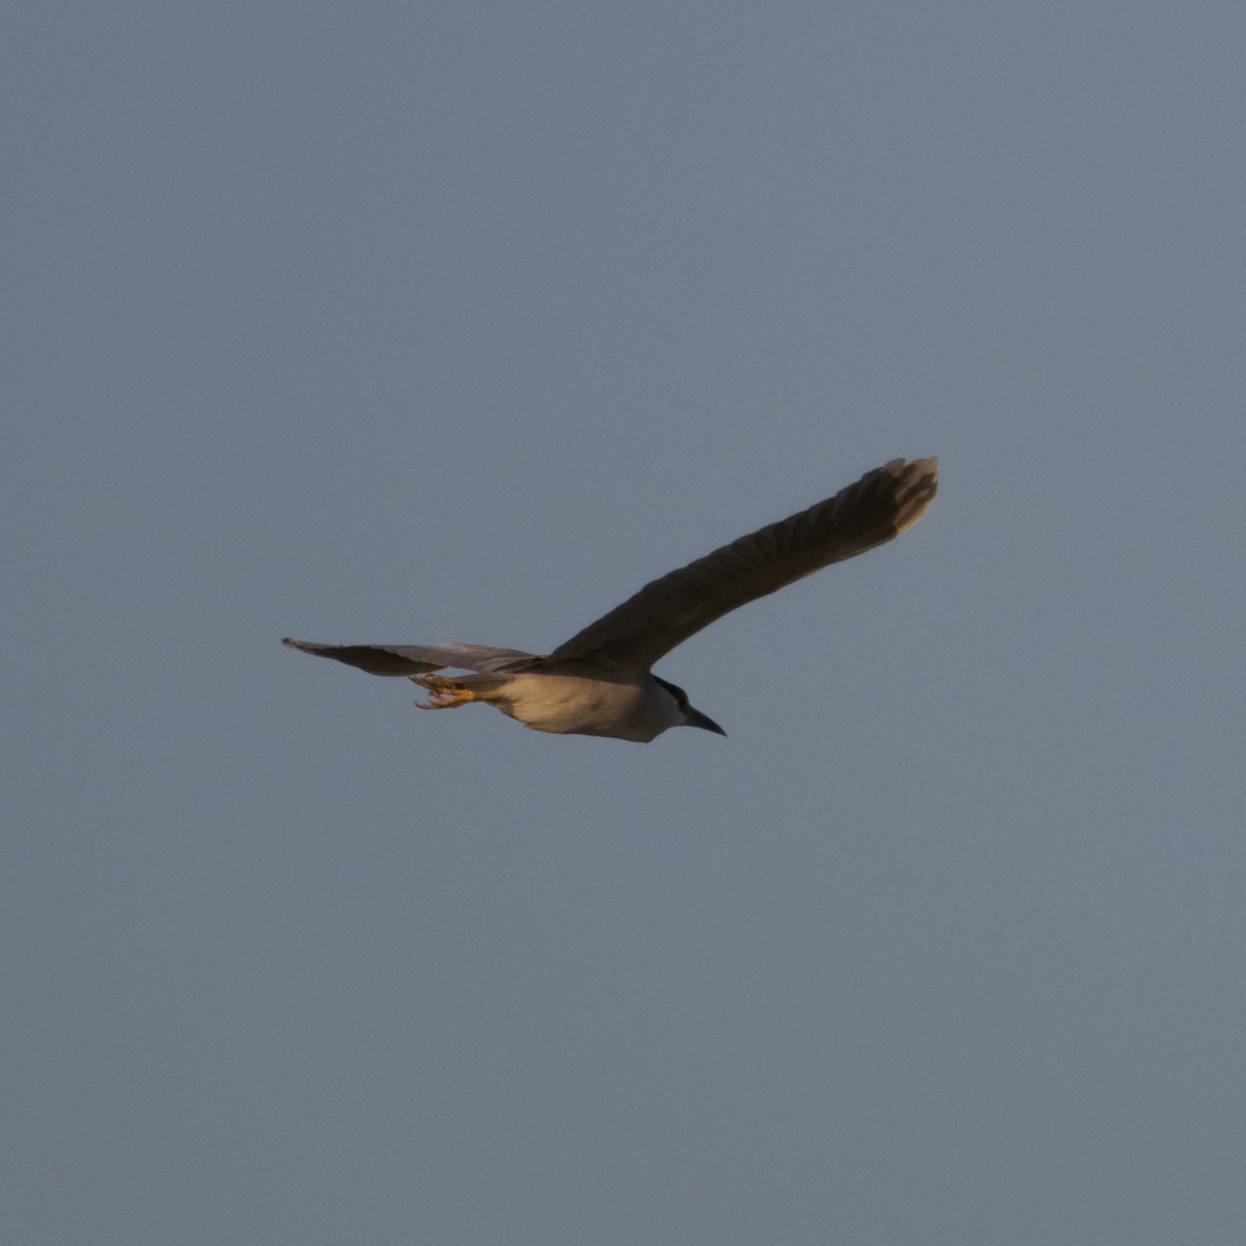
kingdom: Animalia
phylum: Chordata
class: Aves
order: Pelecaniformes
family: Ardeidae
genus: Nycticorax
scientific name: Nycticorax nycticorax
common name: Black-crowned night heron
